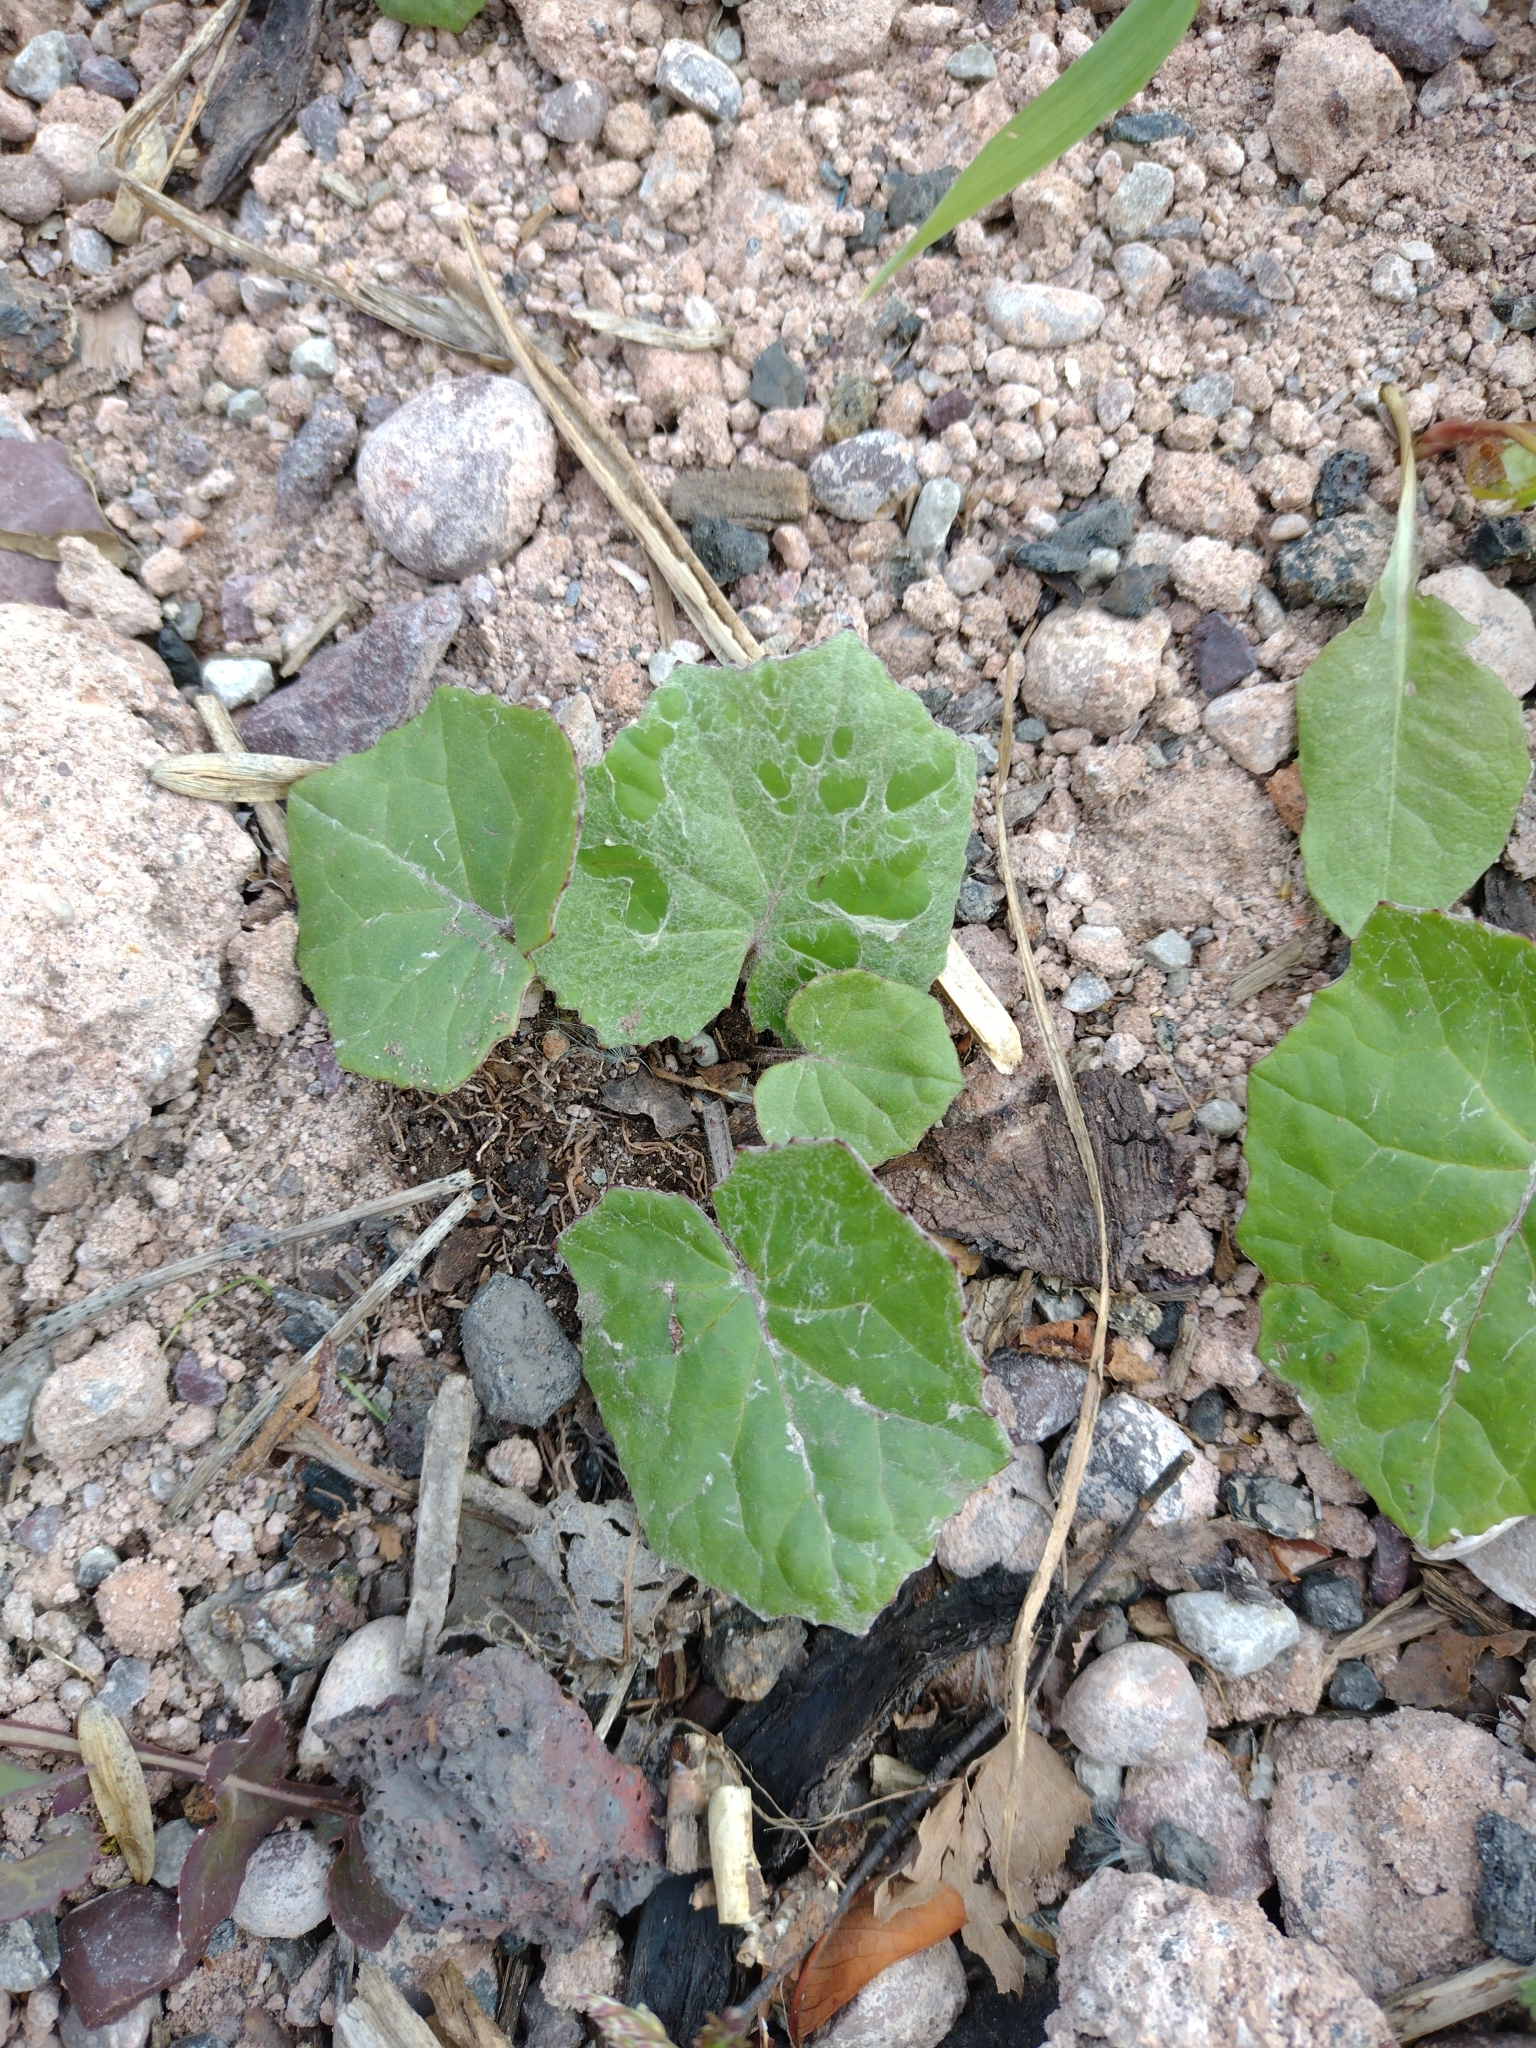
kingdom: Plantae
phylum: Tracheophyta
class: Magnoliopsida
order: Asterales
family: Asteraceae
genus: Tussilago
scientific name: Tussilago farfara
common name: Coltsfoot
